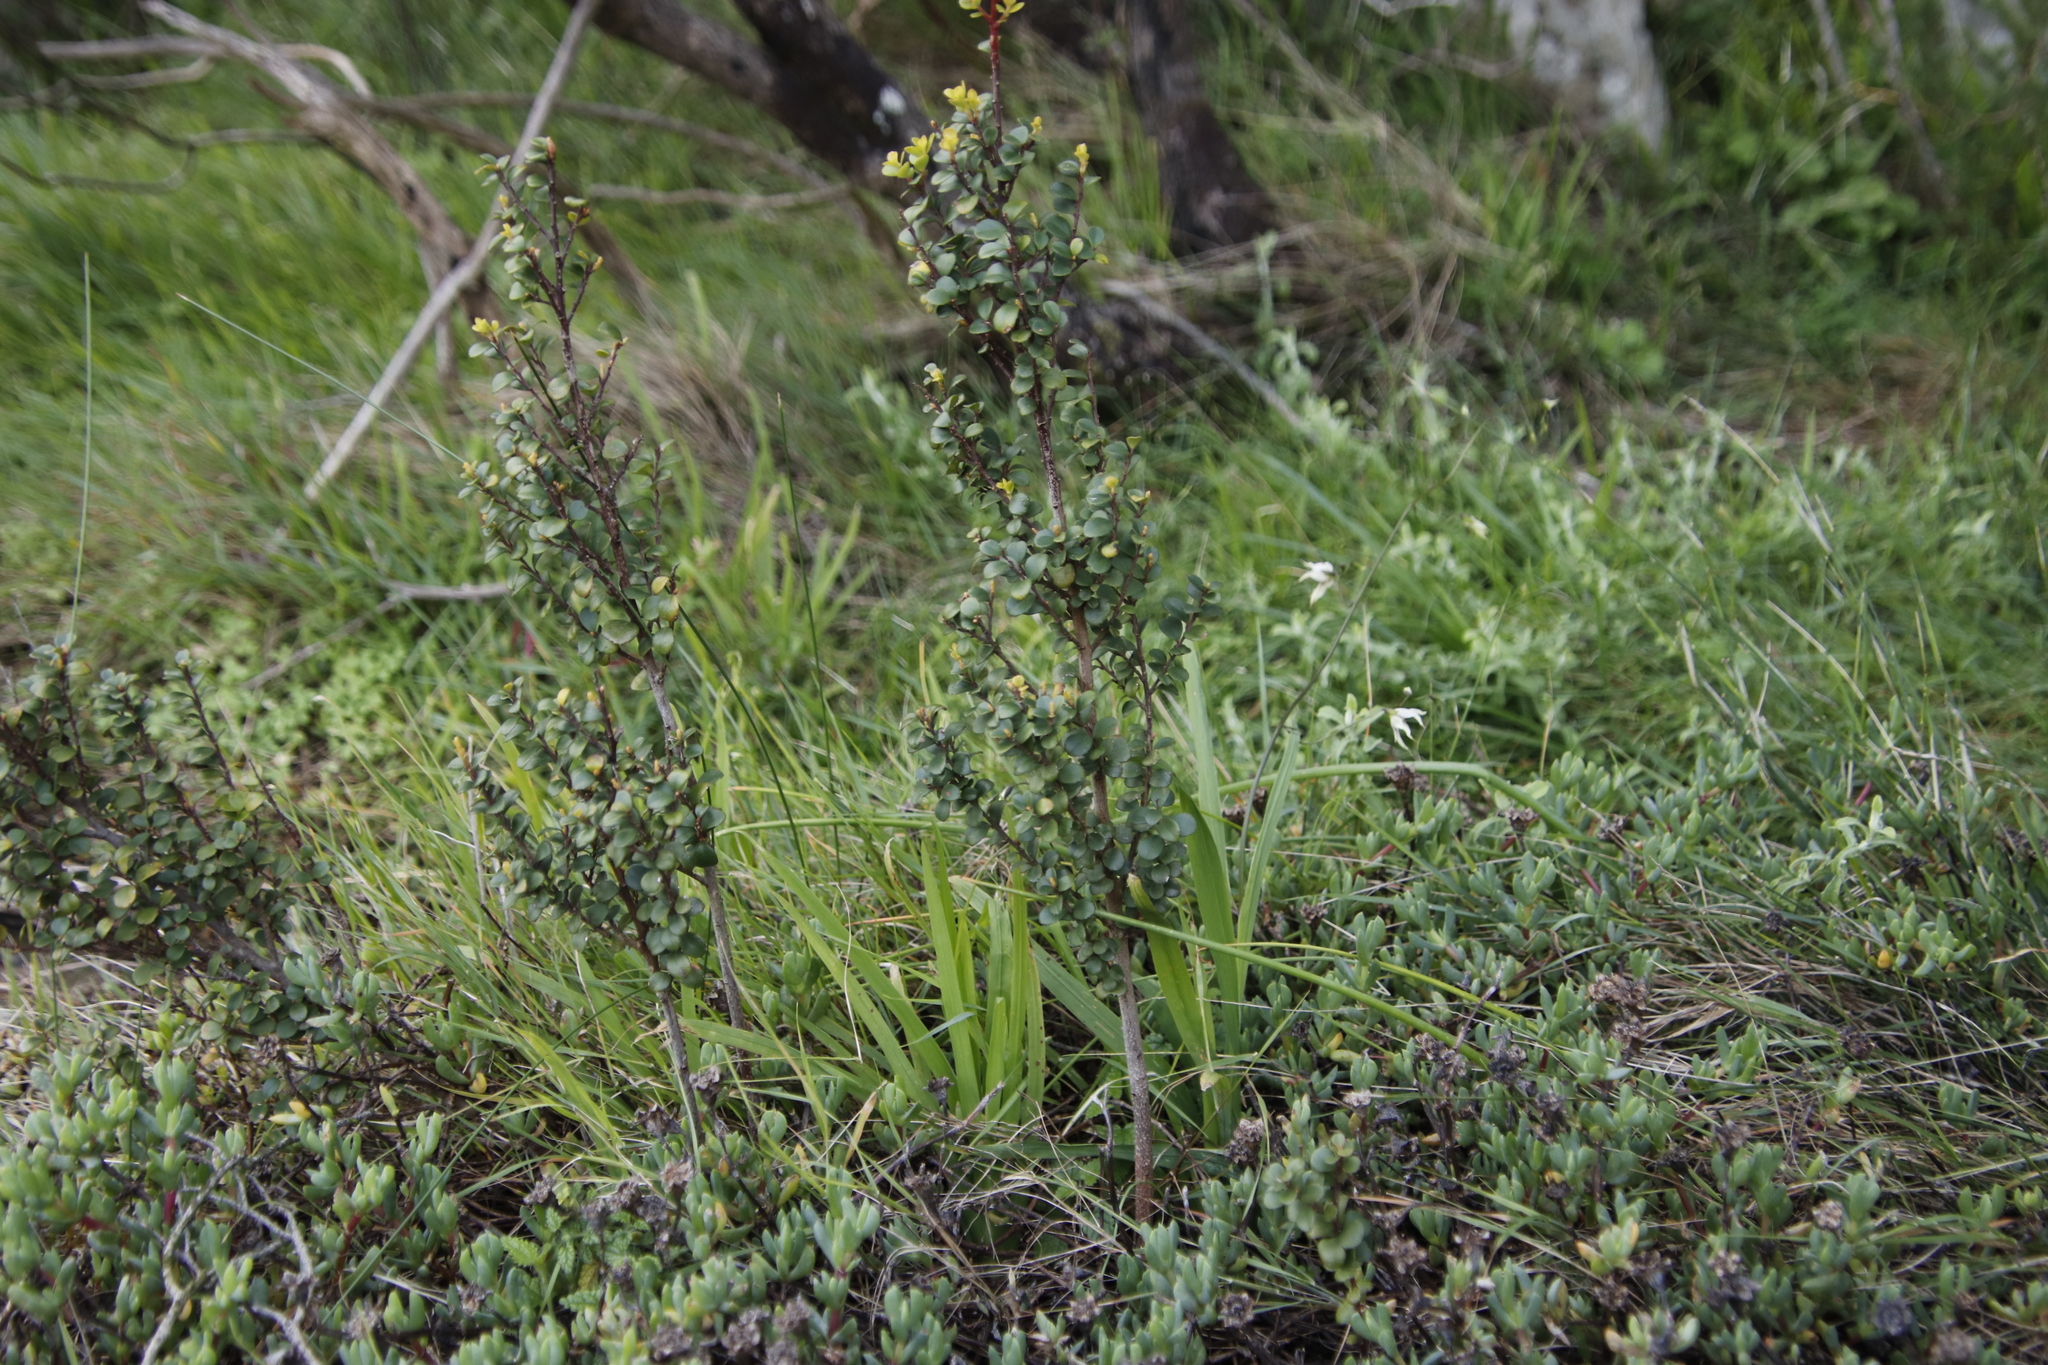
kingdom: Plantae
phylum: Tracheophyta
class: Liliopsida
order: Asparagales
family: Iridaceae
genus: Melasphaerula
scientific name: Melasphaerula graminea
